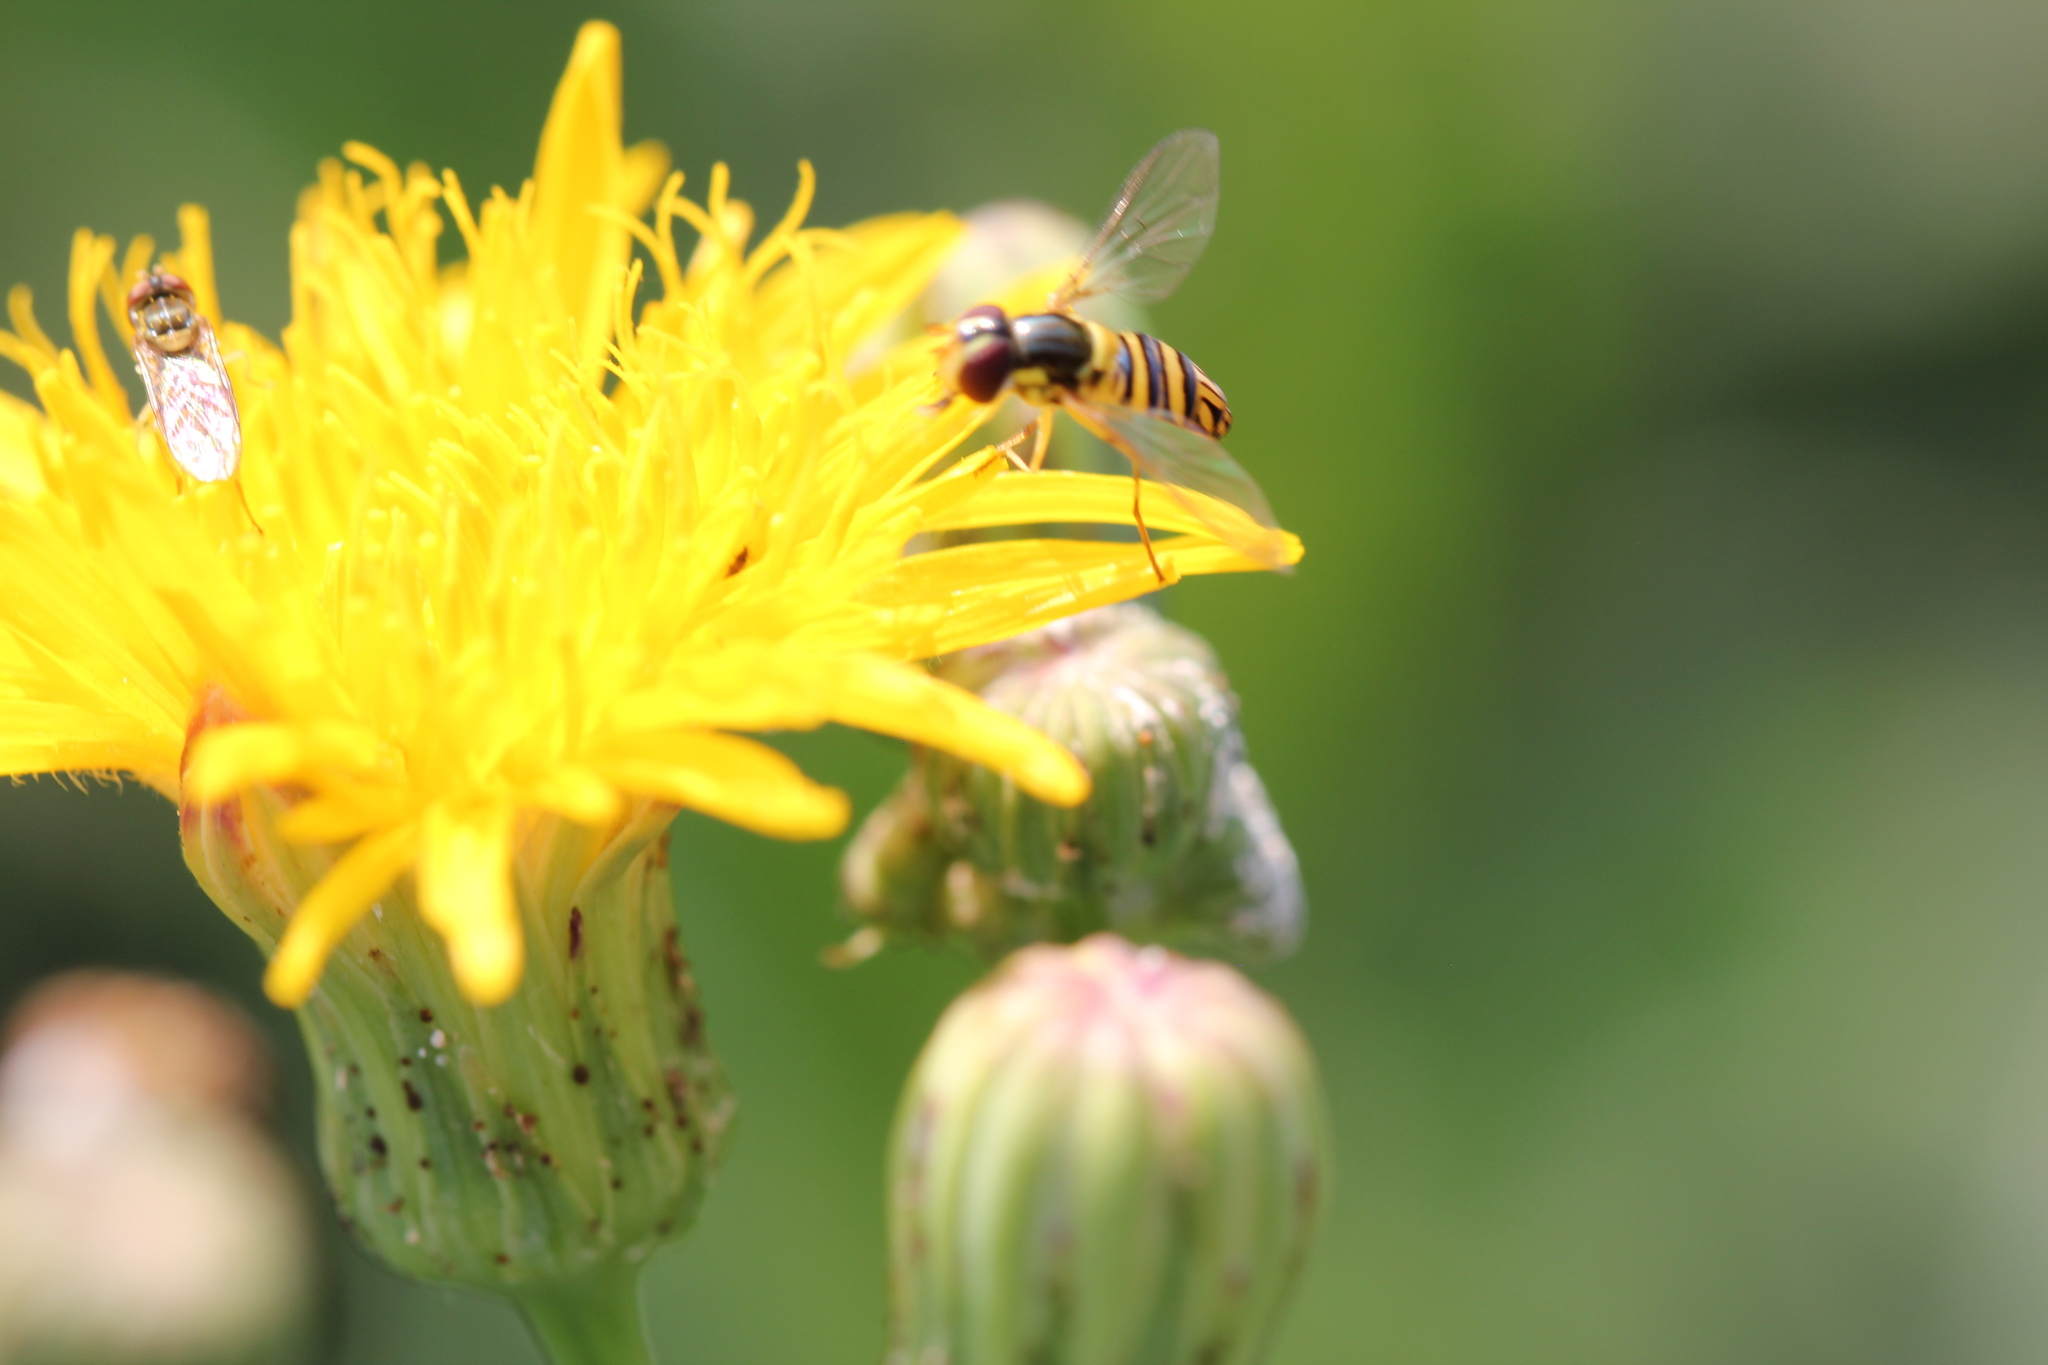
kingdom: Animalia
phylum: Arthropoda
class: Insecta
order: Diptera
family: Syrphidae
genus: Allograpta
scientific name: Allograpta obliqua
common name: Common oblique syrphid
